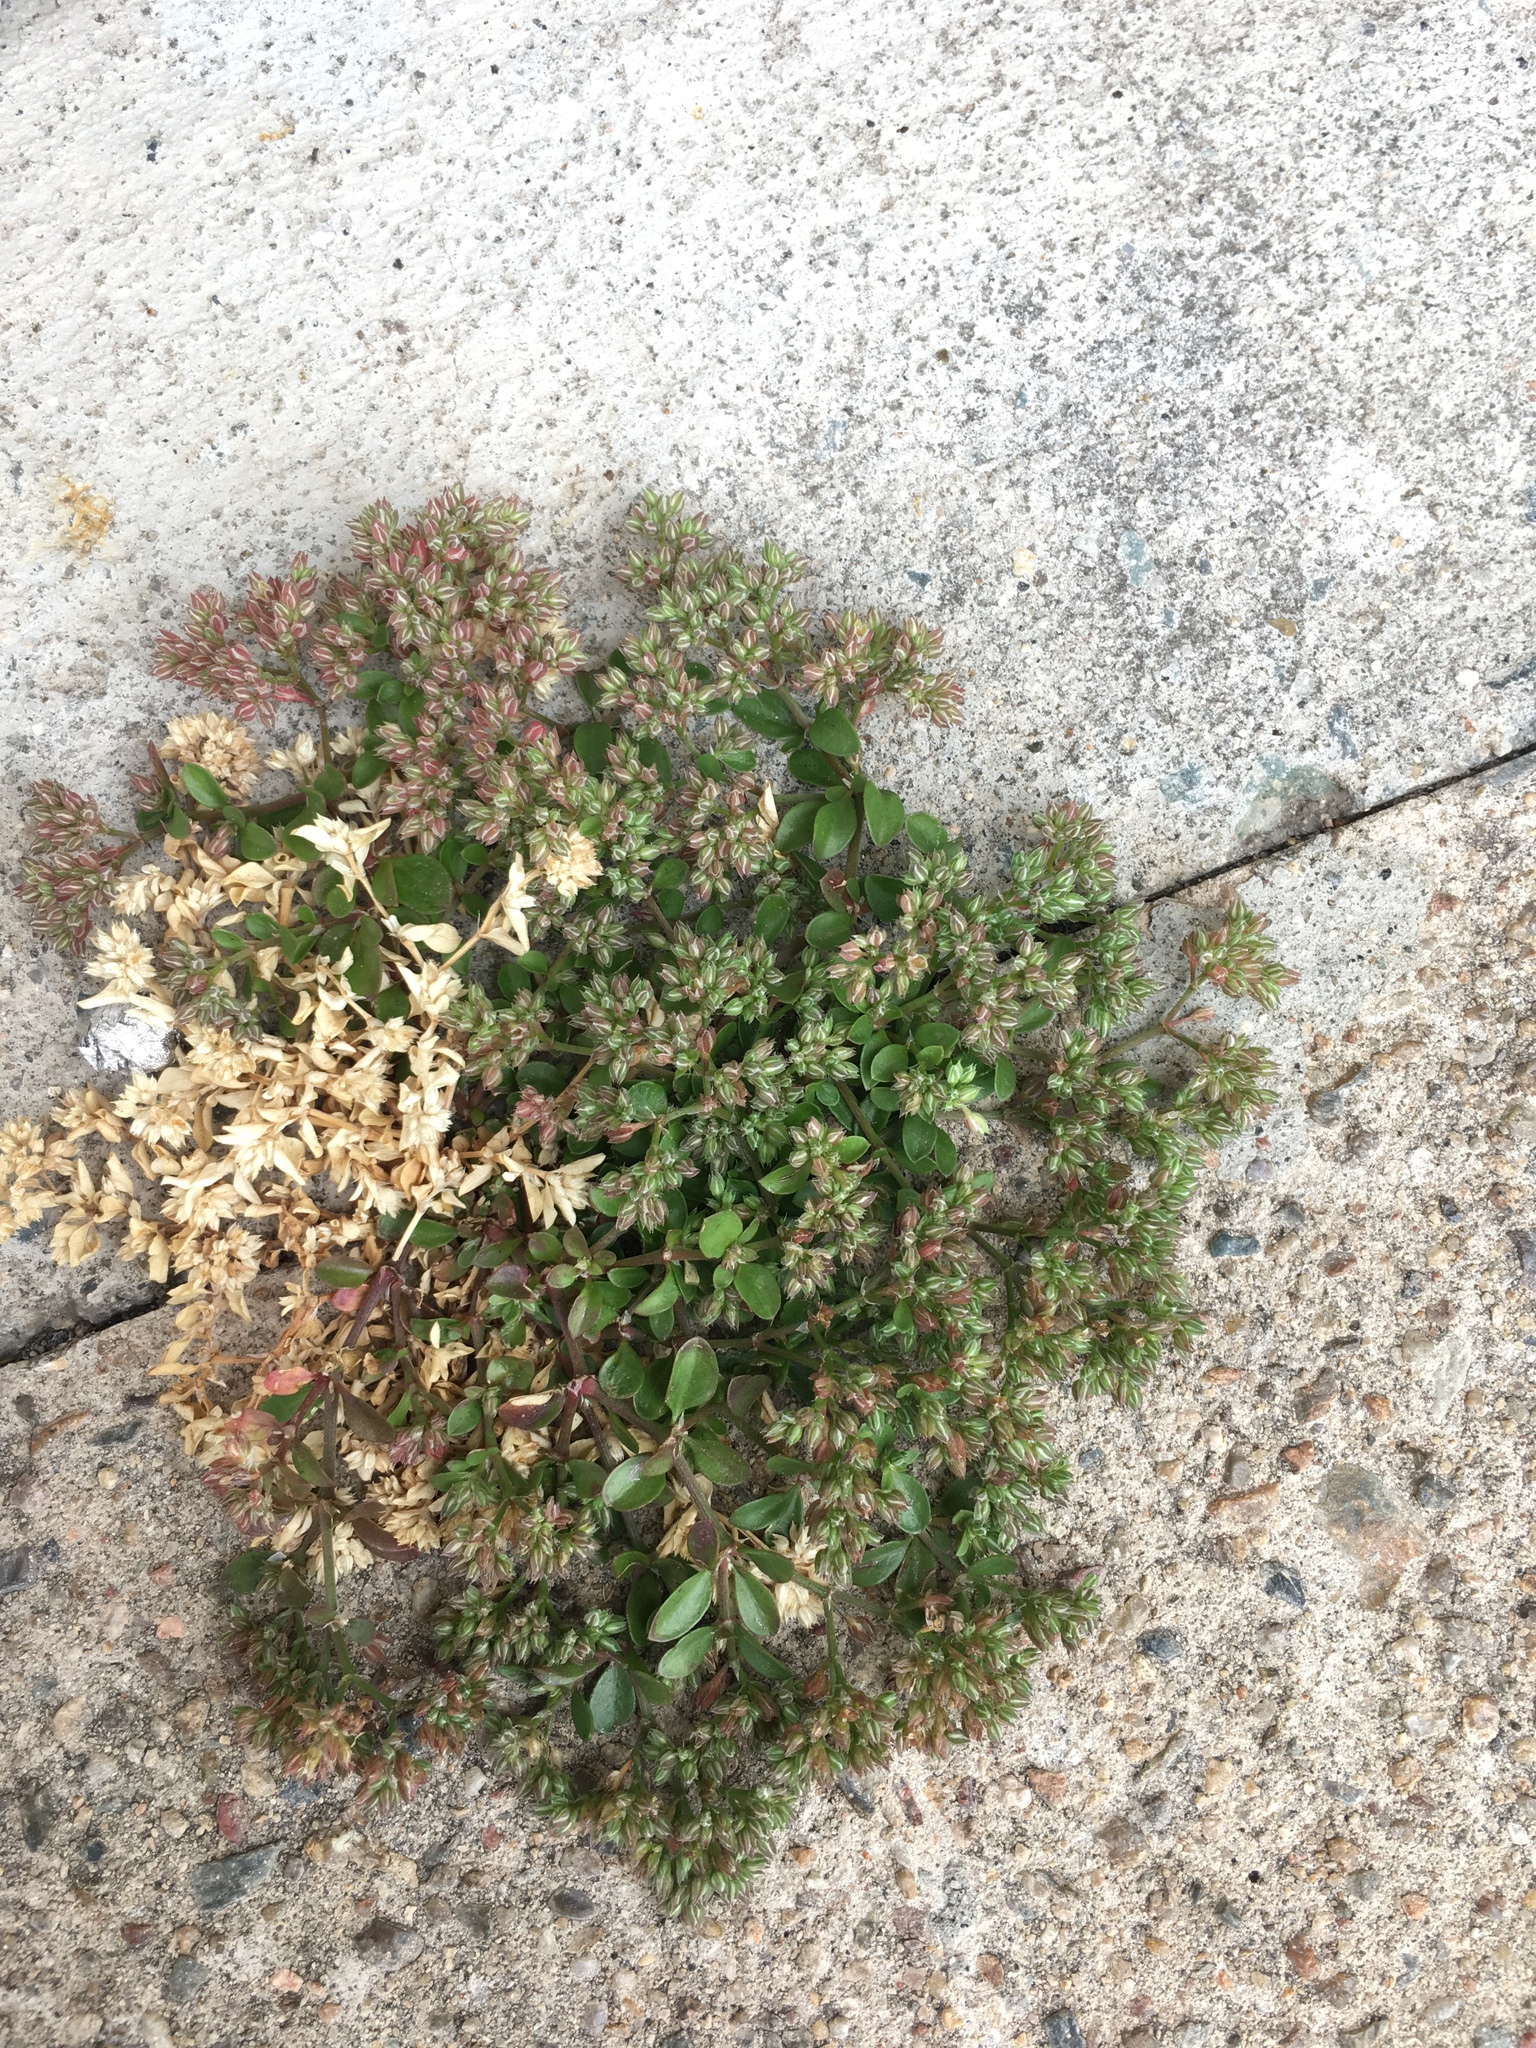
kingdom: Plantae
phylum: Tracheophyta
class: Magnoliopsida
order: Caryophyllales
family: Caryophyllaceae
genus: Polycarpon
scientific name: Polycarpon tetraphyllum
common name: Four-leaved all-seed
